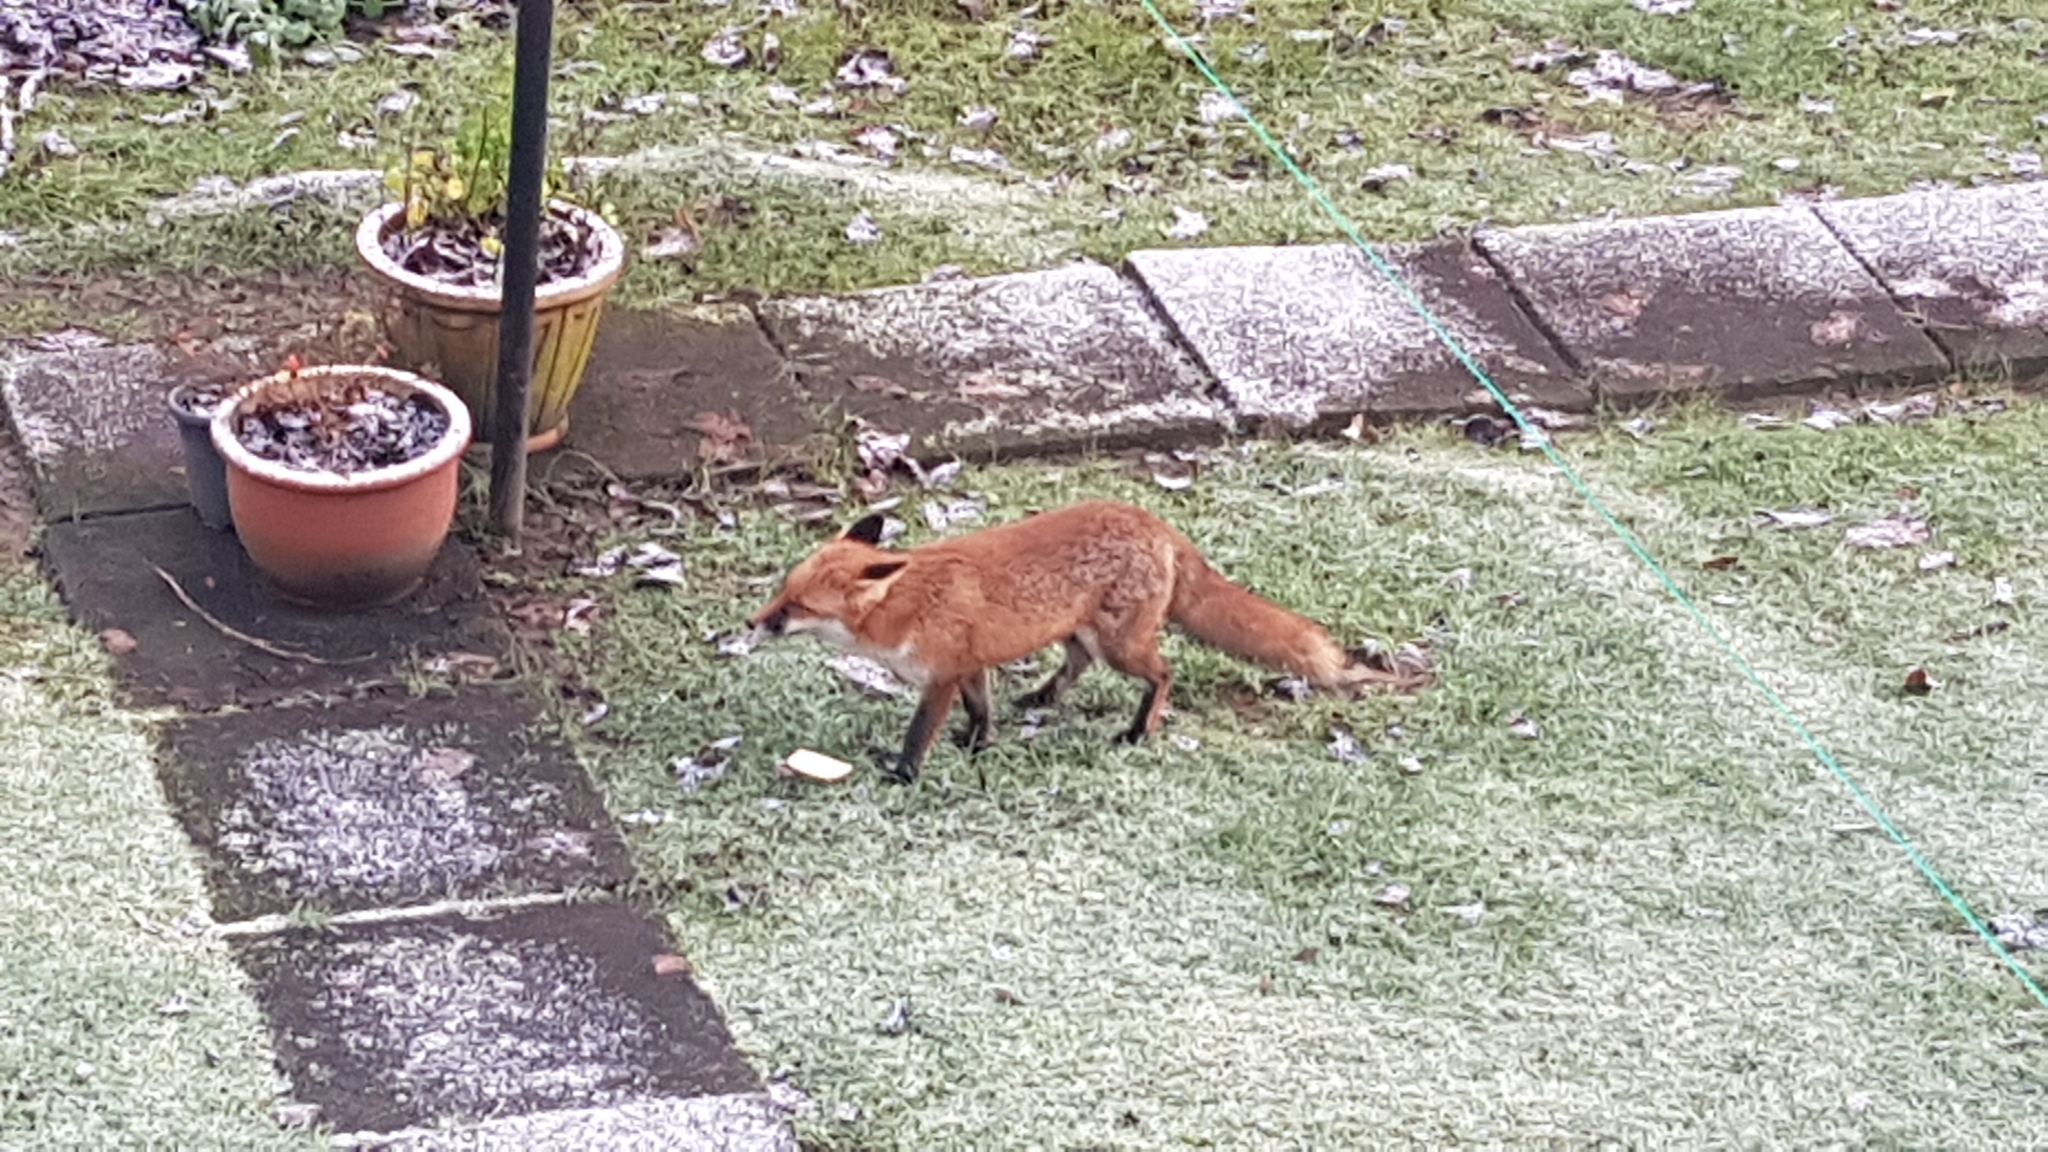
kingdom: Animalia
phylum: Chordata
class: Mammalia
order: Carnivora
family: Canidae
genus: Vulpes
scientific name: Vulpes vulpes
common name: Red fox
